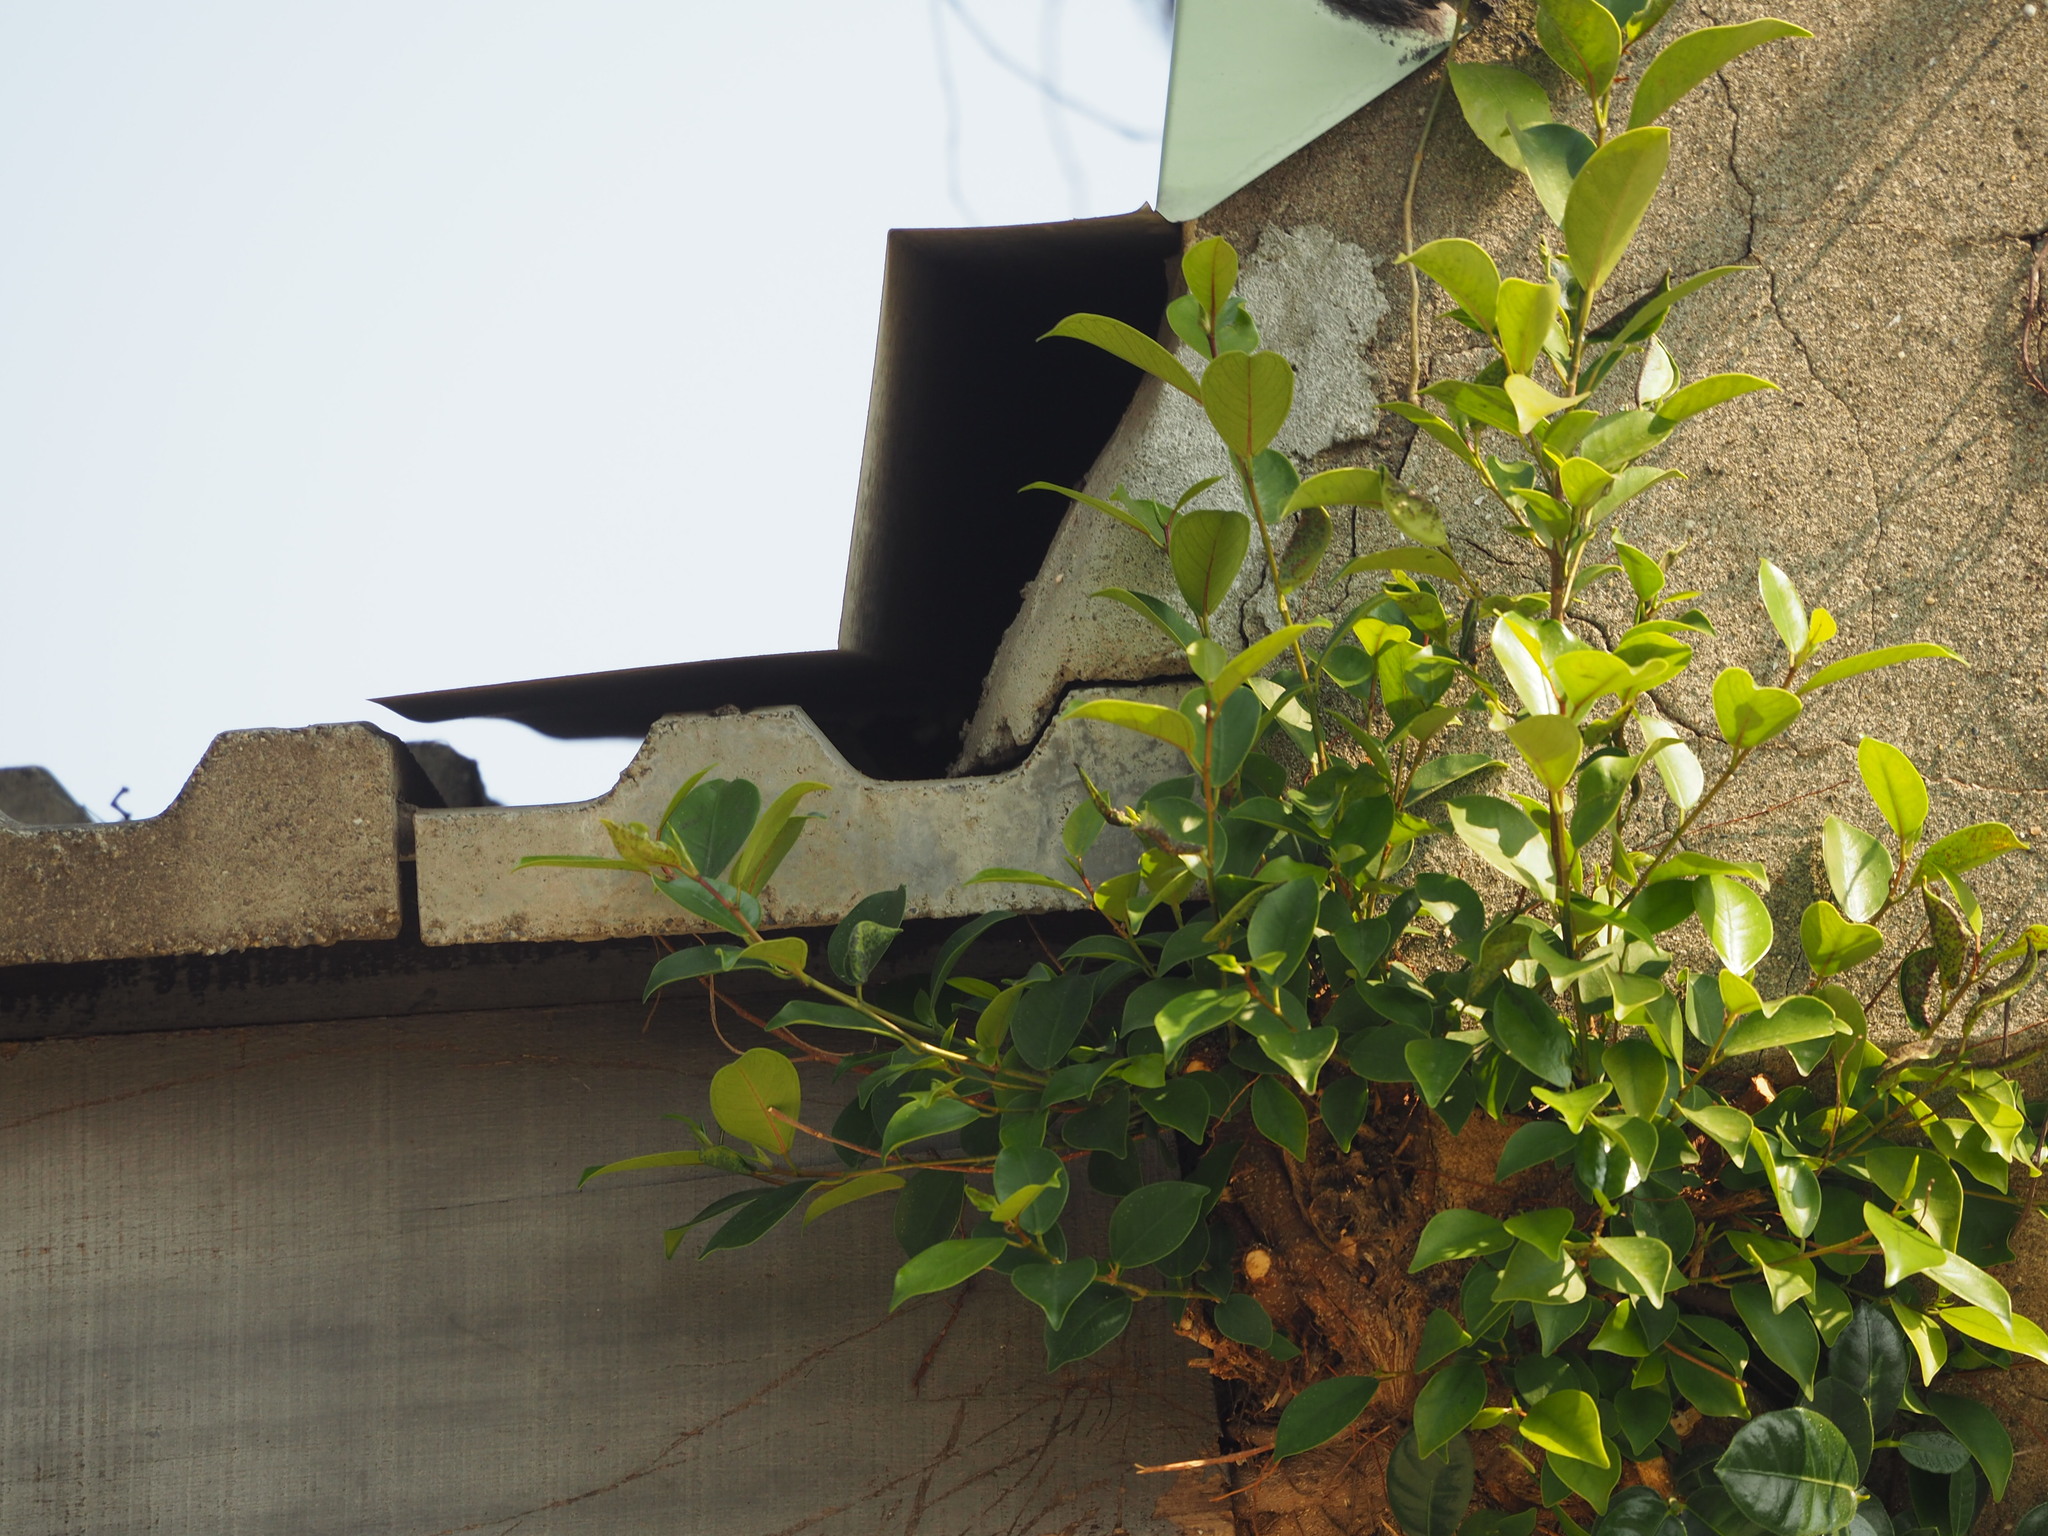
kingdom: Plantae
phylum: Tracheophyta
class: Magnoliopsida
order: Rosales
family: Moraceae
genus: Ficus
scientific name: Ficus microcarpa
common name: Chinese banyan
